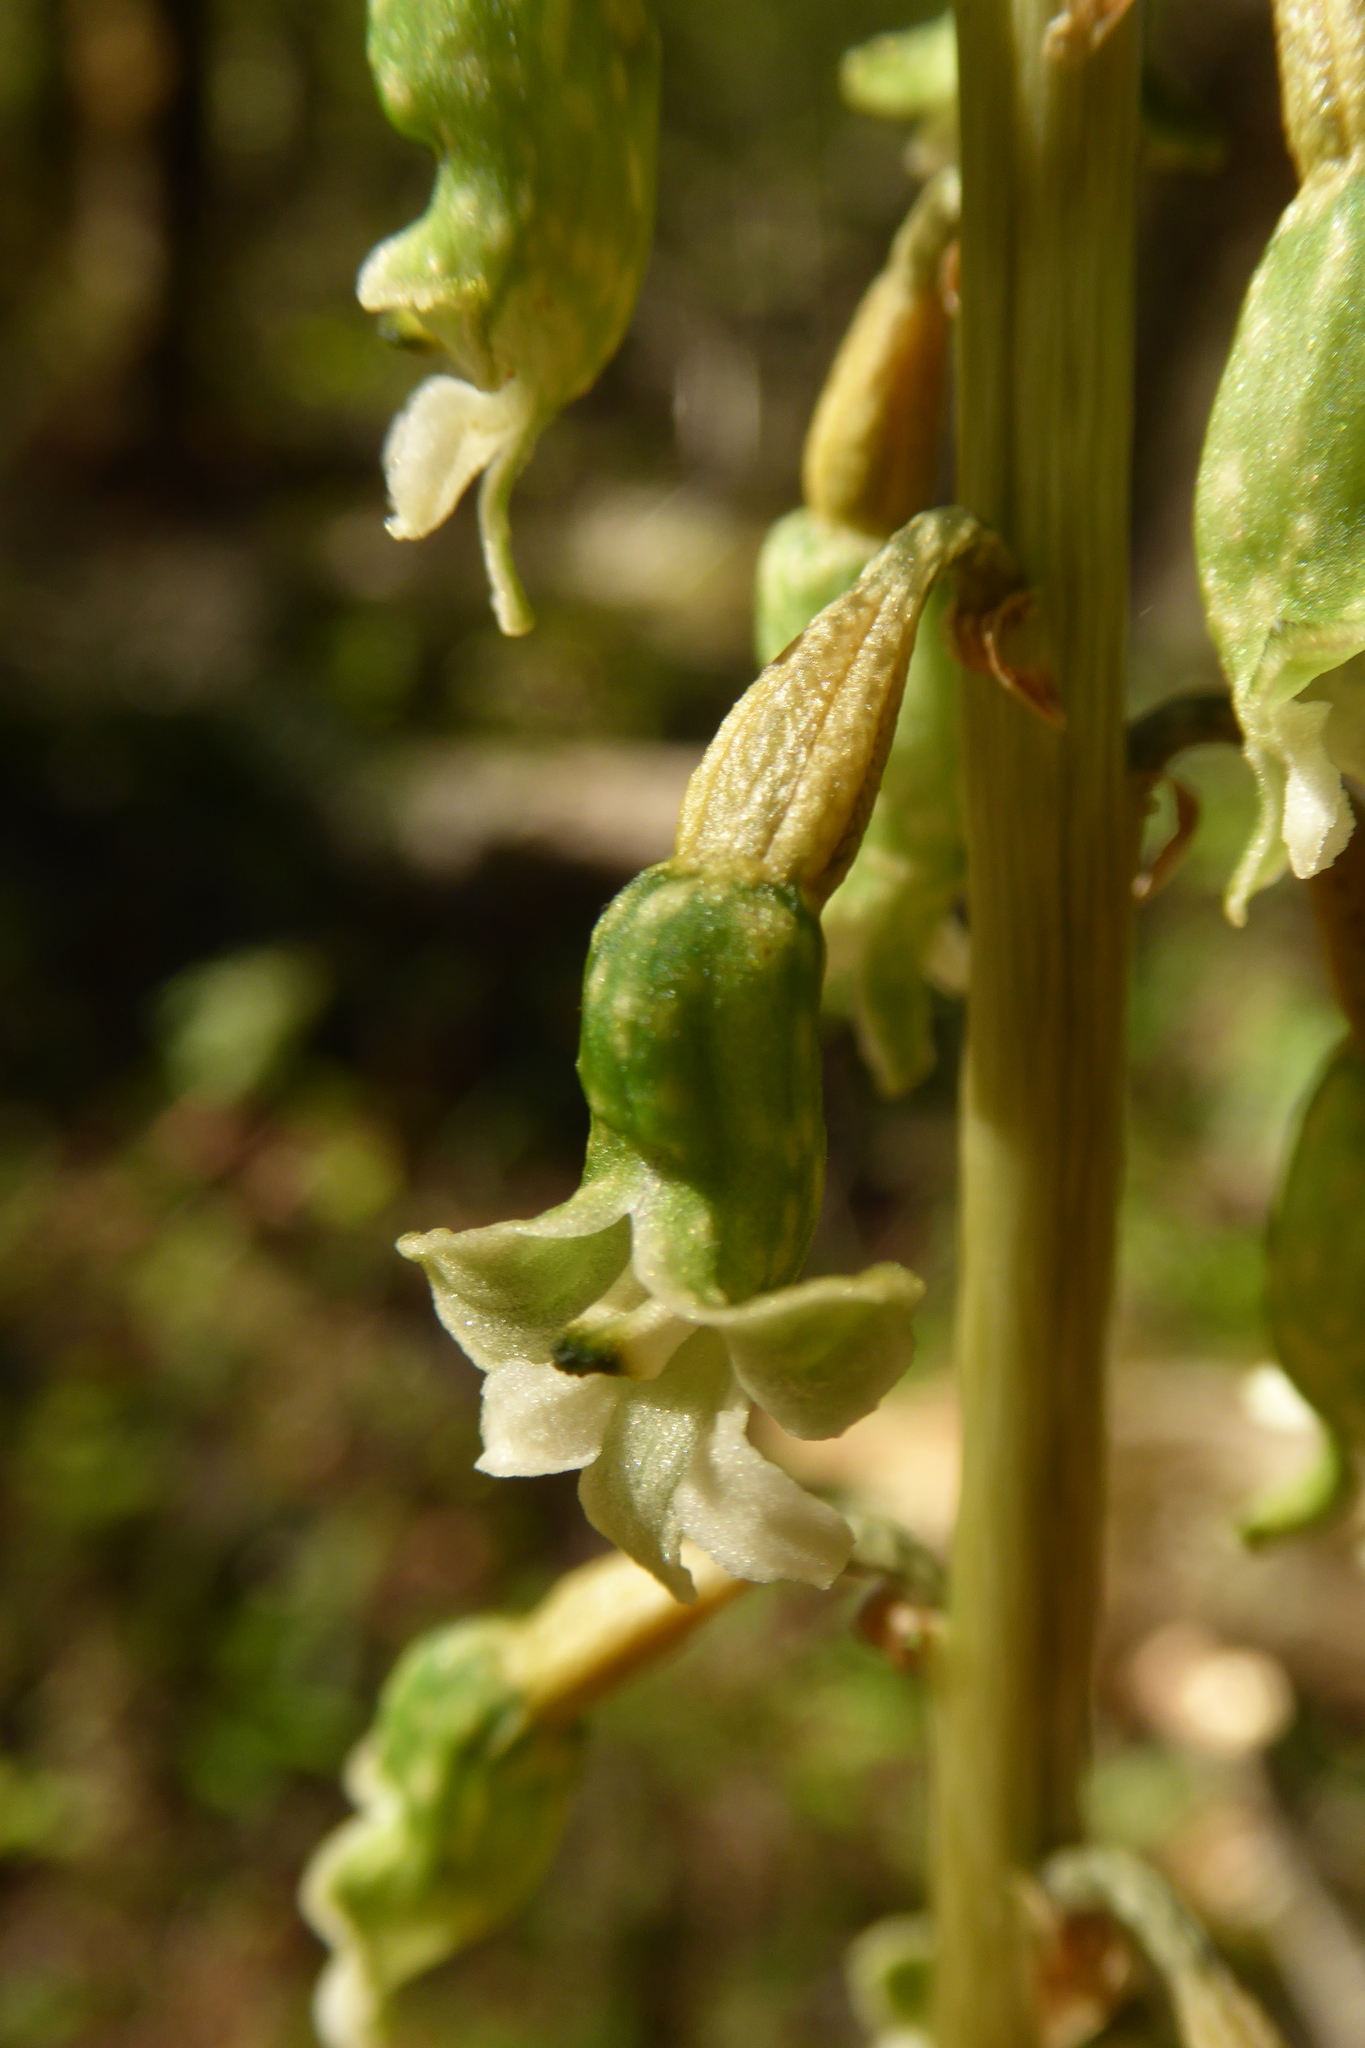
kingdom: Plantae
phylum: Tracheophyta
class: Liliopsida
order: Asparagales
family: Orchidaceae
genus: Gastrodia
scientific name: Gastrodia cunninghamii
